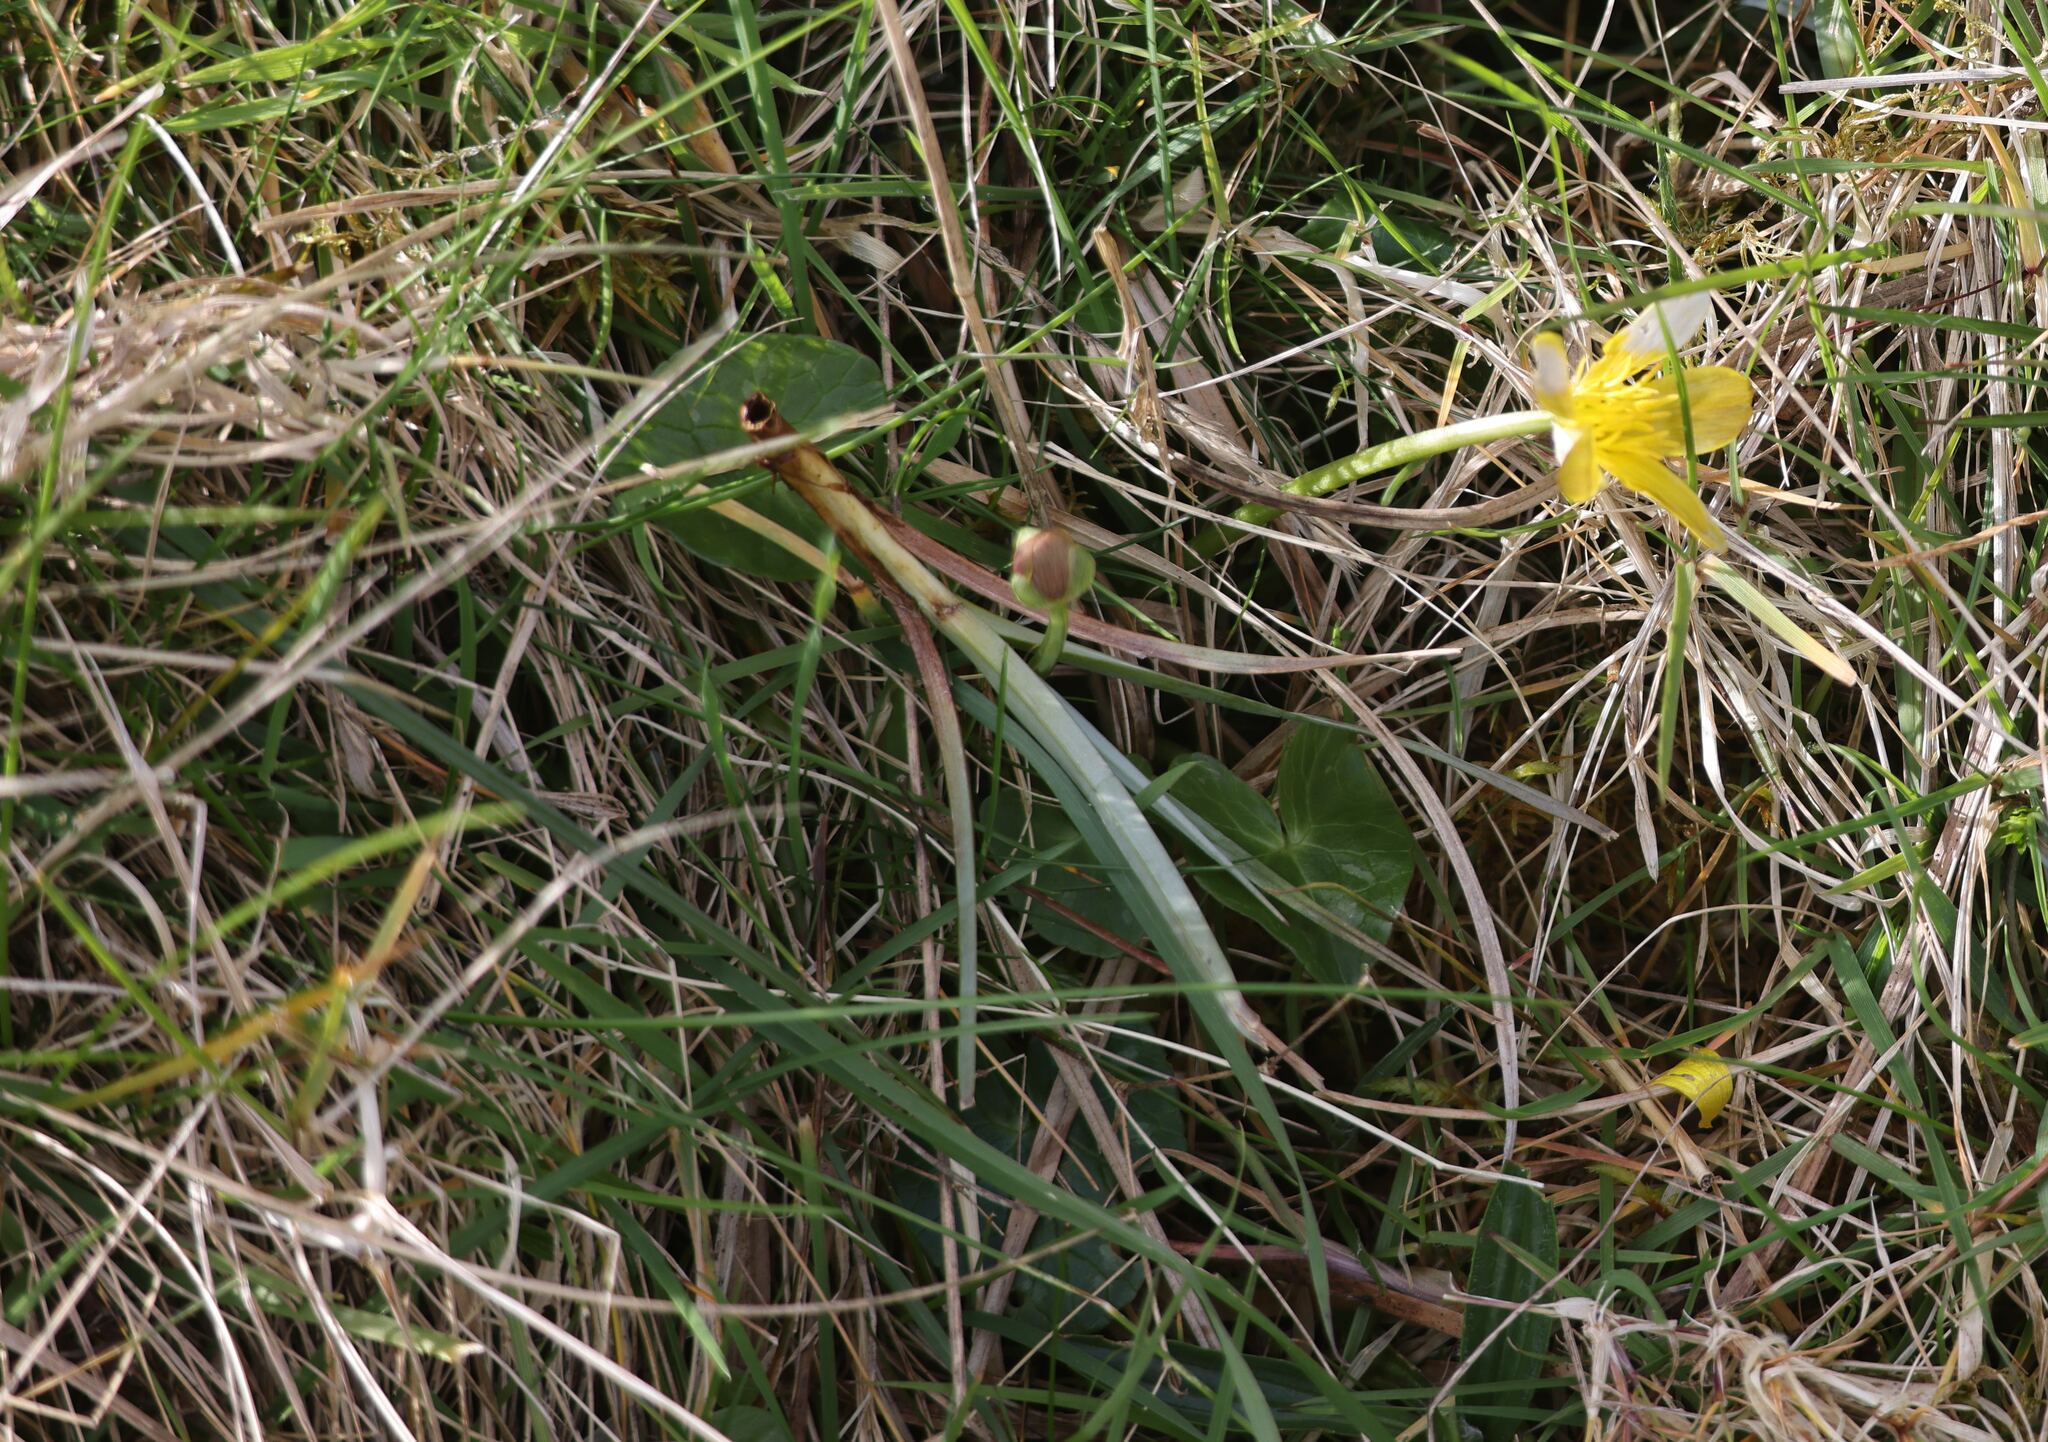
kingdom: Plantae
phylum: Tracheophyta
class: Magnoliopsida
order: Ranunculales
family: Ranunculaceae
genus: Ficaria
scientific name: Ficaria verna
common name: Lesser celandine
